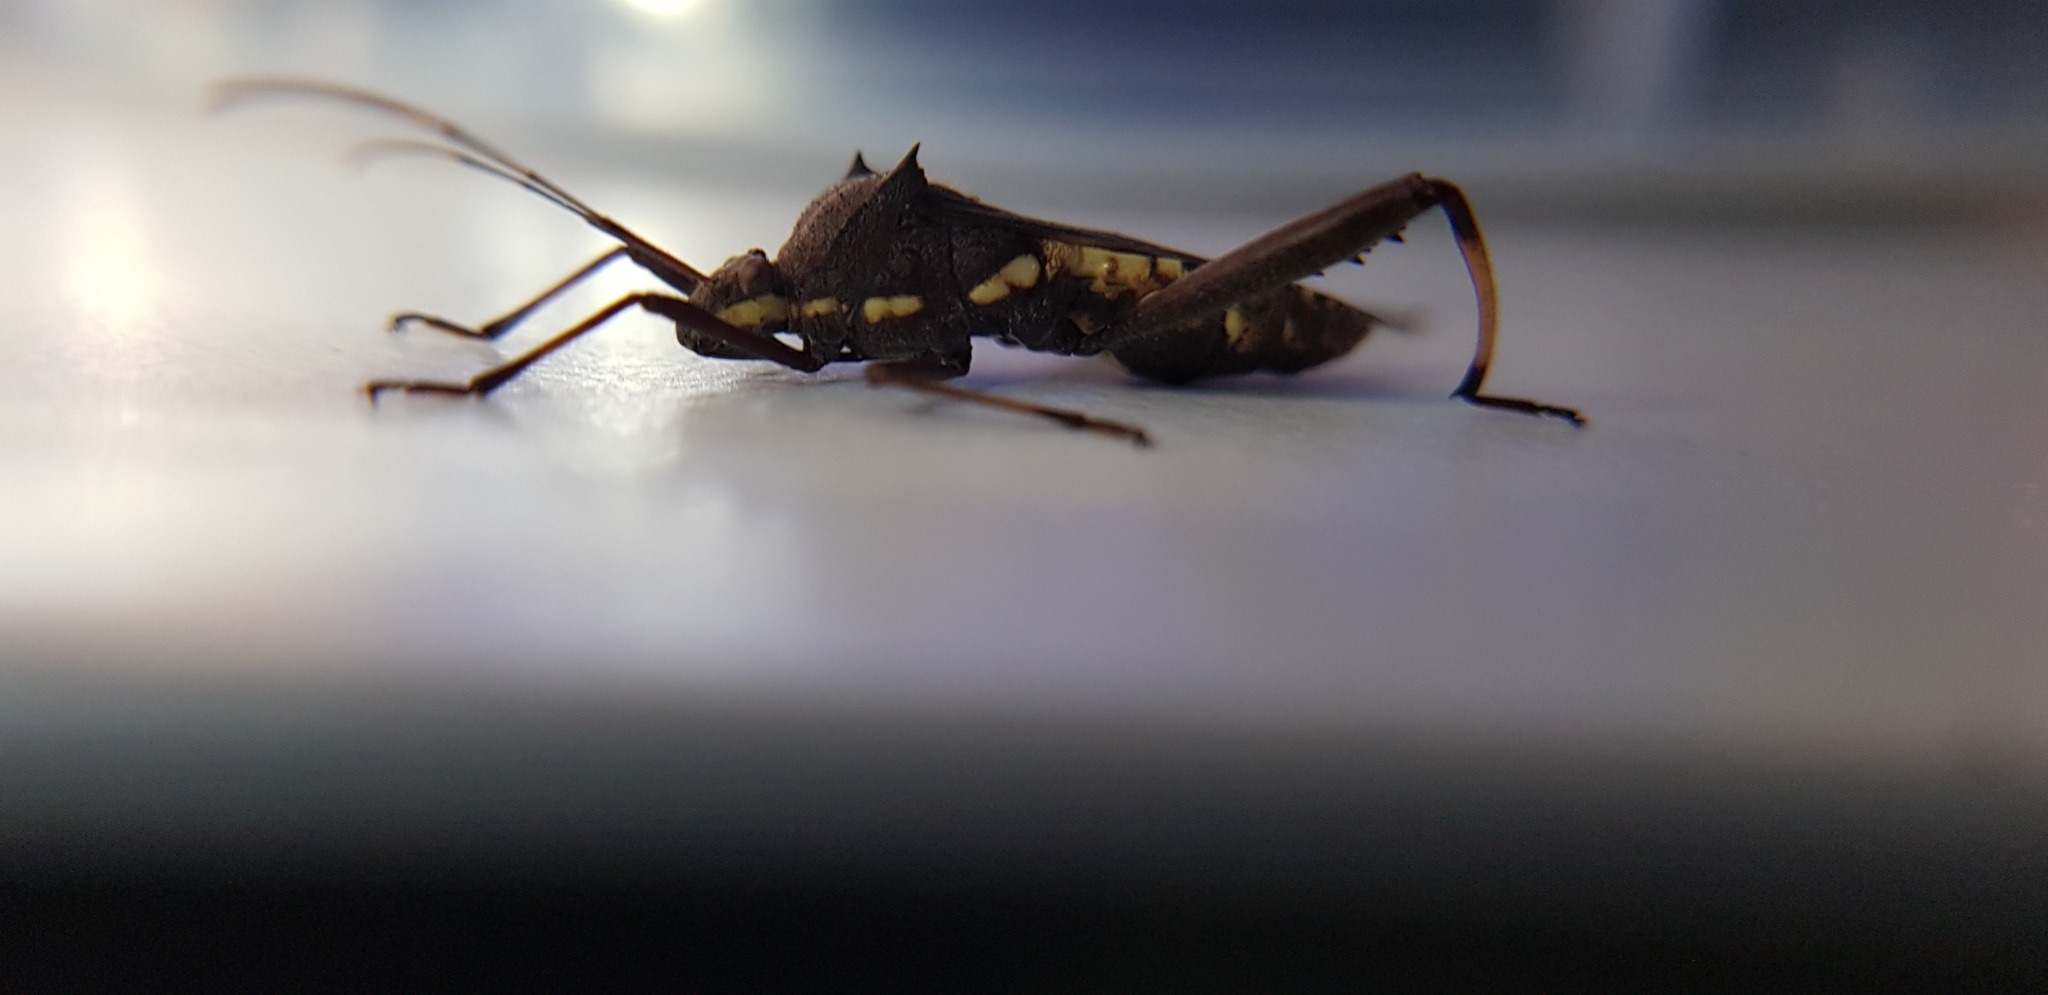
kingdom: Animalia
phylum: Arthropoda
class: Insecta
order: Hemiptera
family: Alydidae
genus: Riptortus
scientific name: Riptortus serripes
